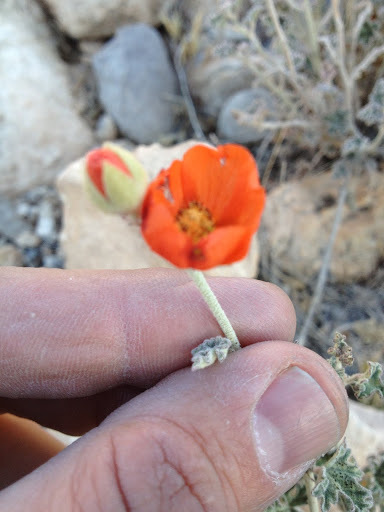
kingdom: Plantae
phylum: Tracheophyta
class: Magnoliopsida
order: Malvales
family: Malvaceae
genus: Sphaeralcea
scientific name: Sphaeralcea ambigua
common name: Apricot globe-mallow
